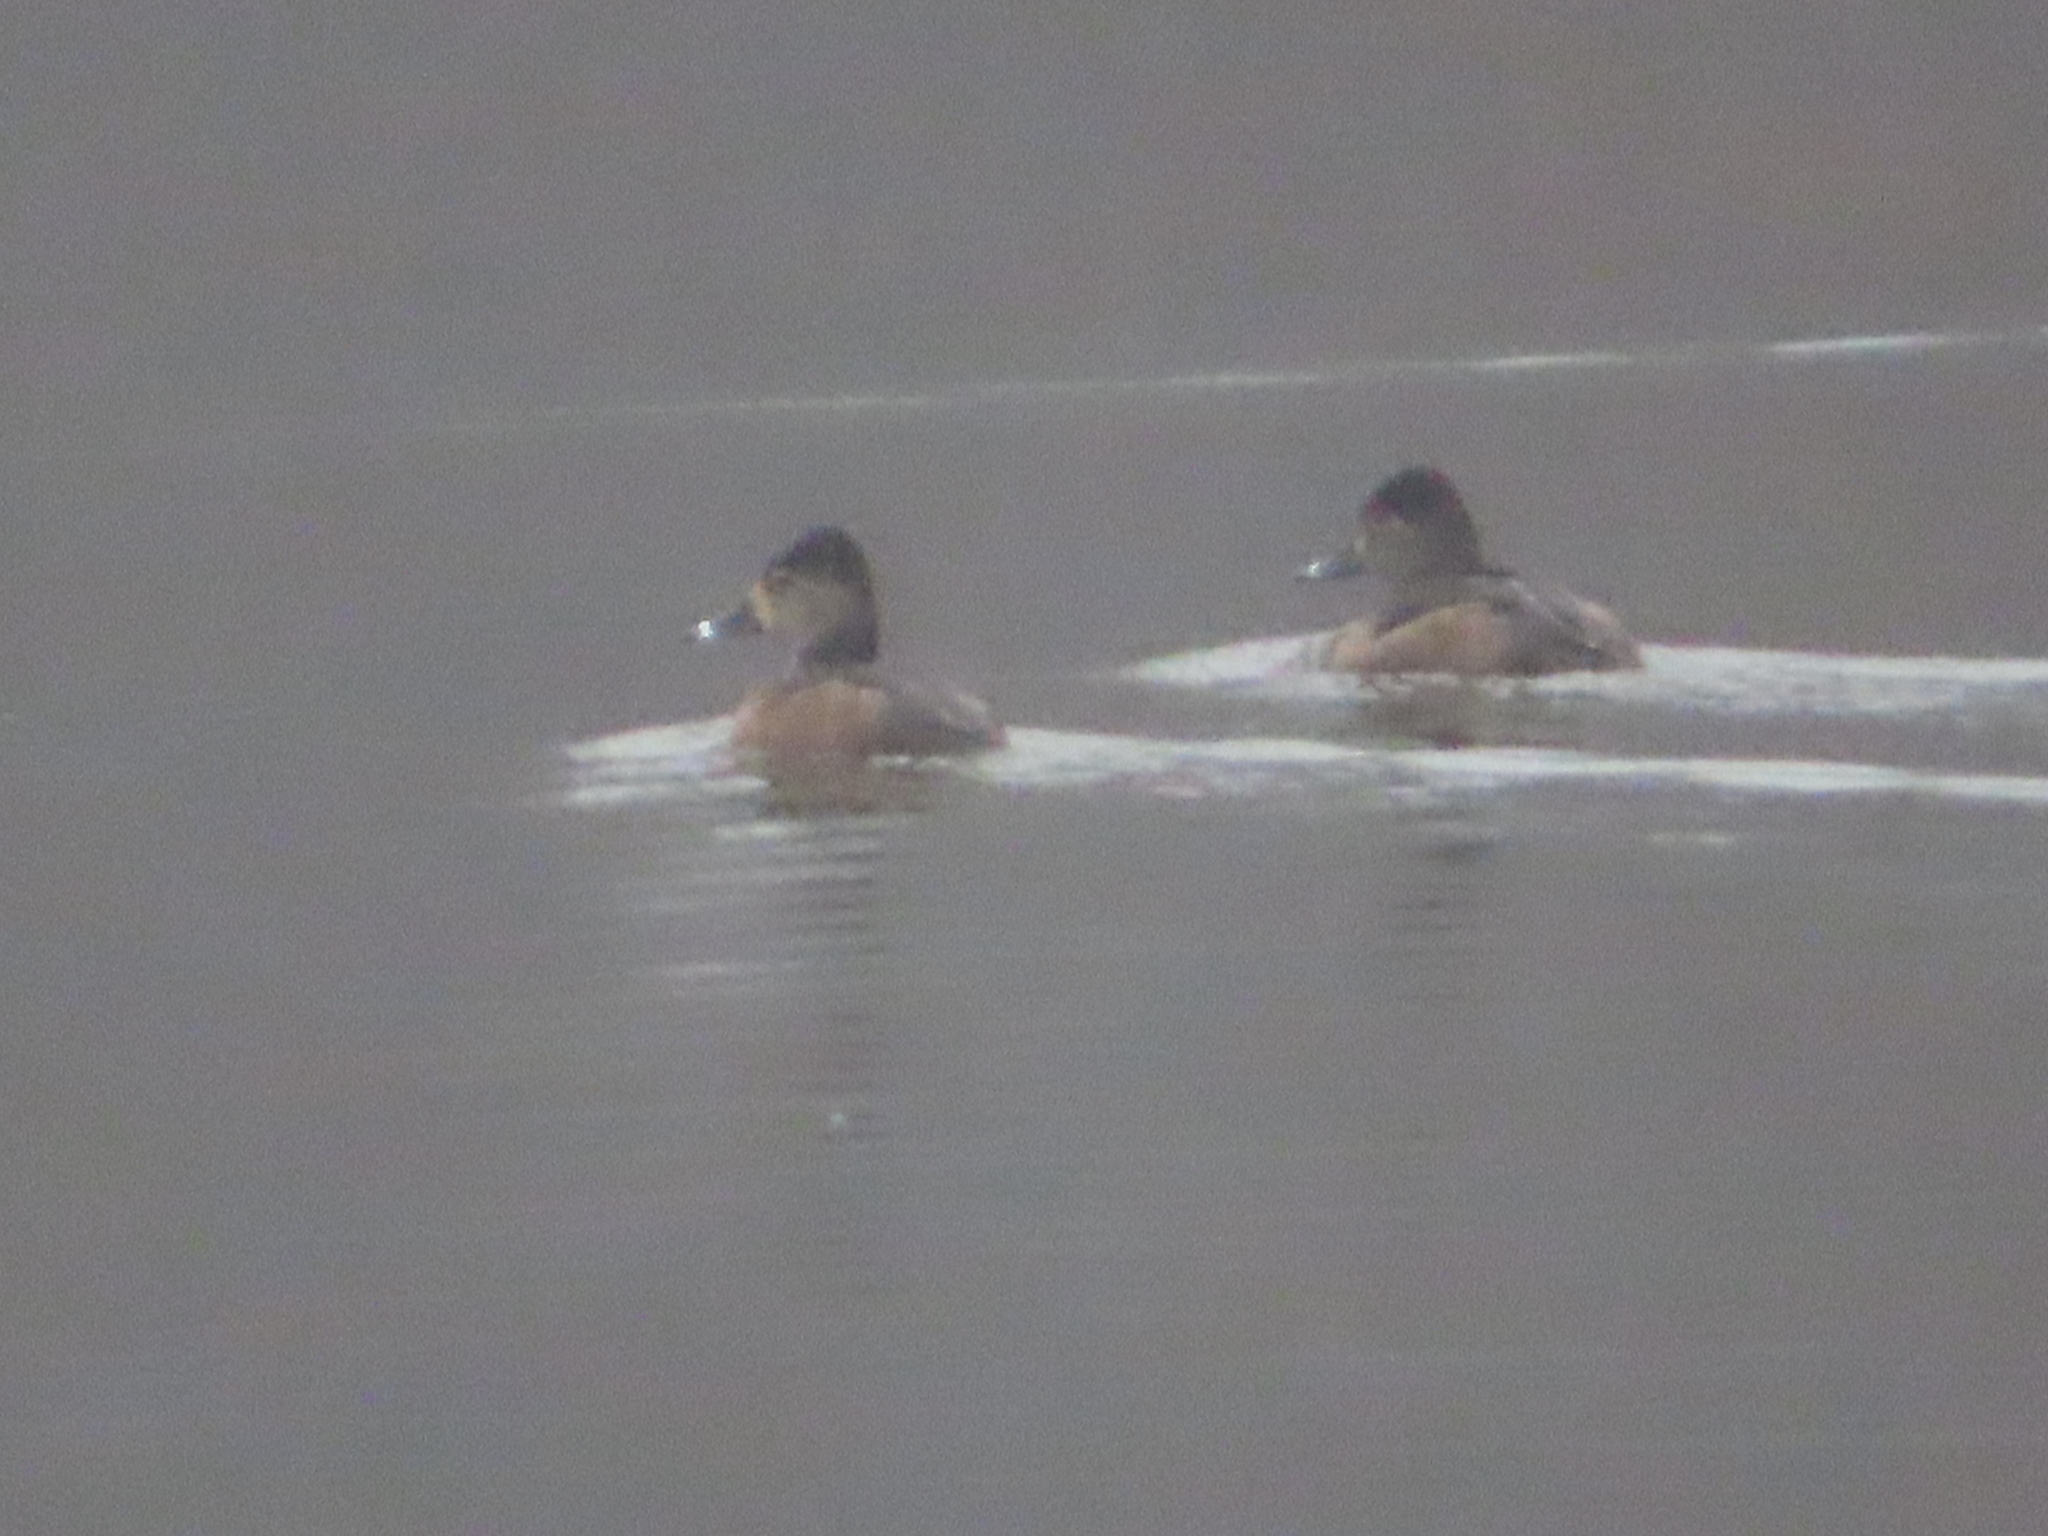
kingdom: Animalia
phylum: Chordata
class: Aves
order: Anseriformes
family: Anatidae
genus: Aythya
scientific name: Aythya collaris
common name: Ring-necked duck
